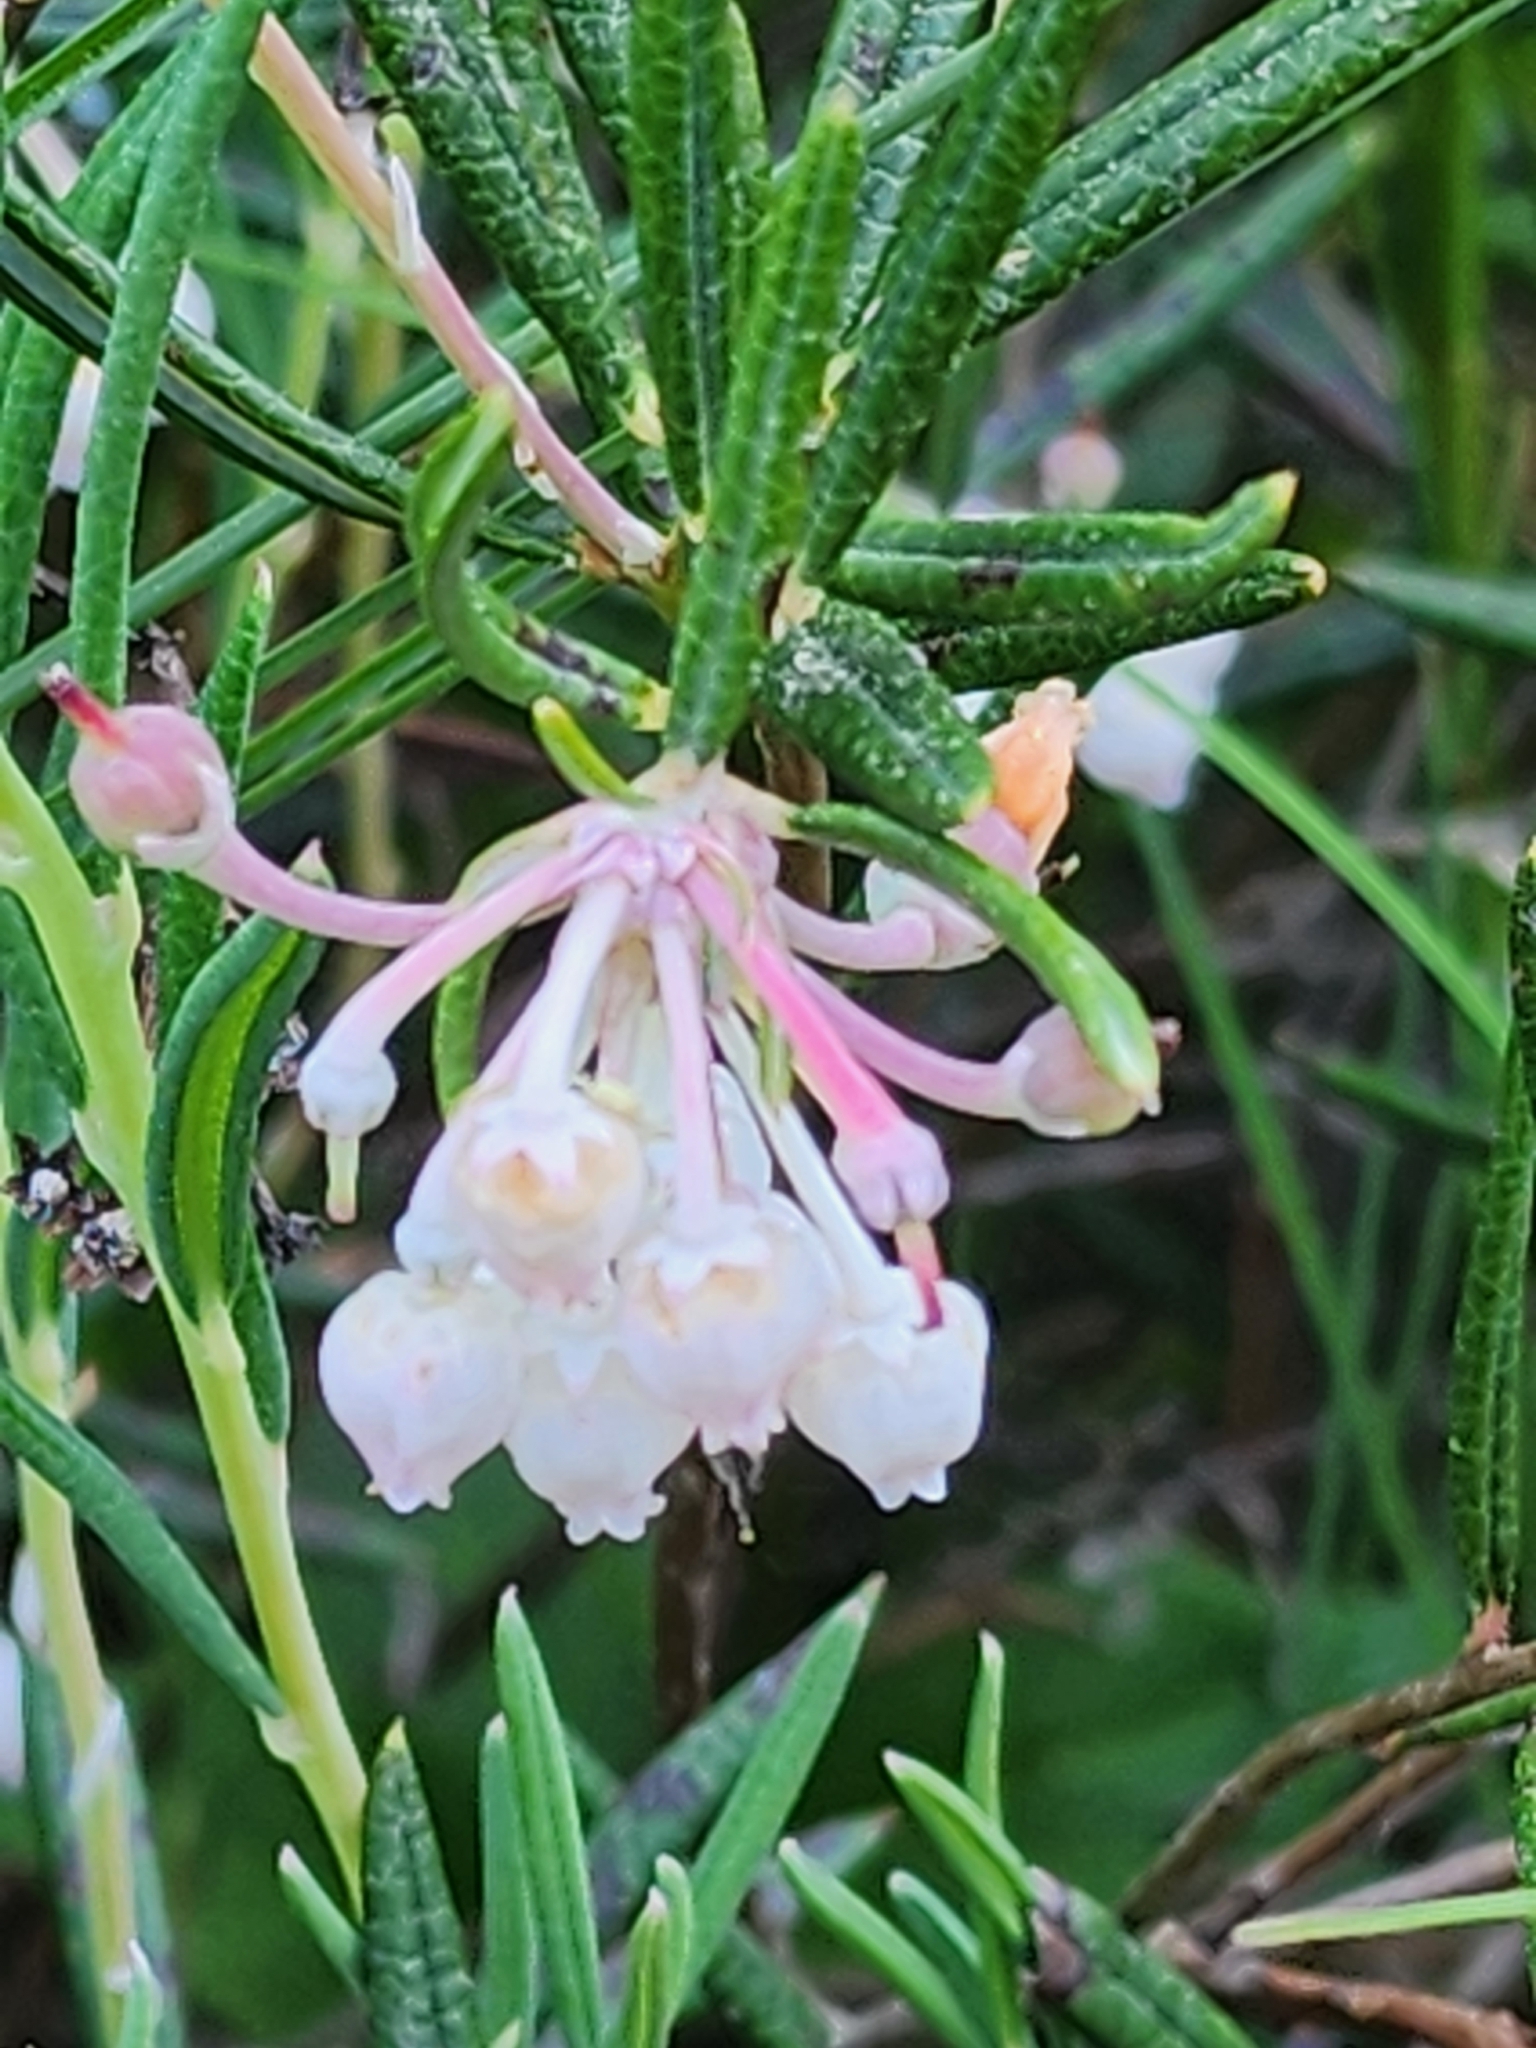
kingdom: Plantae
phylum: Tracheophyta
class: Magnoliopsida
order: Ericales
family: Ericaceae
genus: Andromeda
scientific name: Andromeda polifolia
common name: Bog-rosemary
